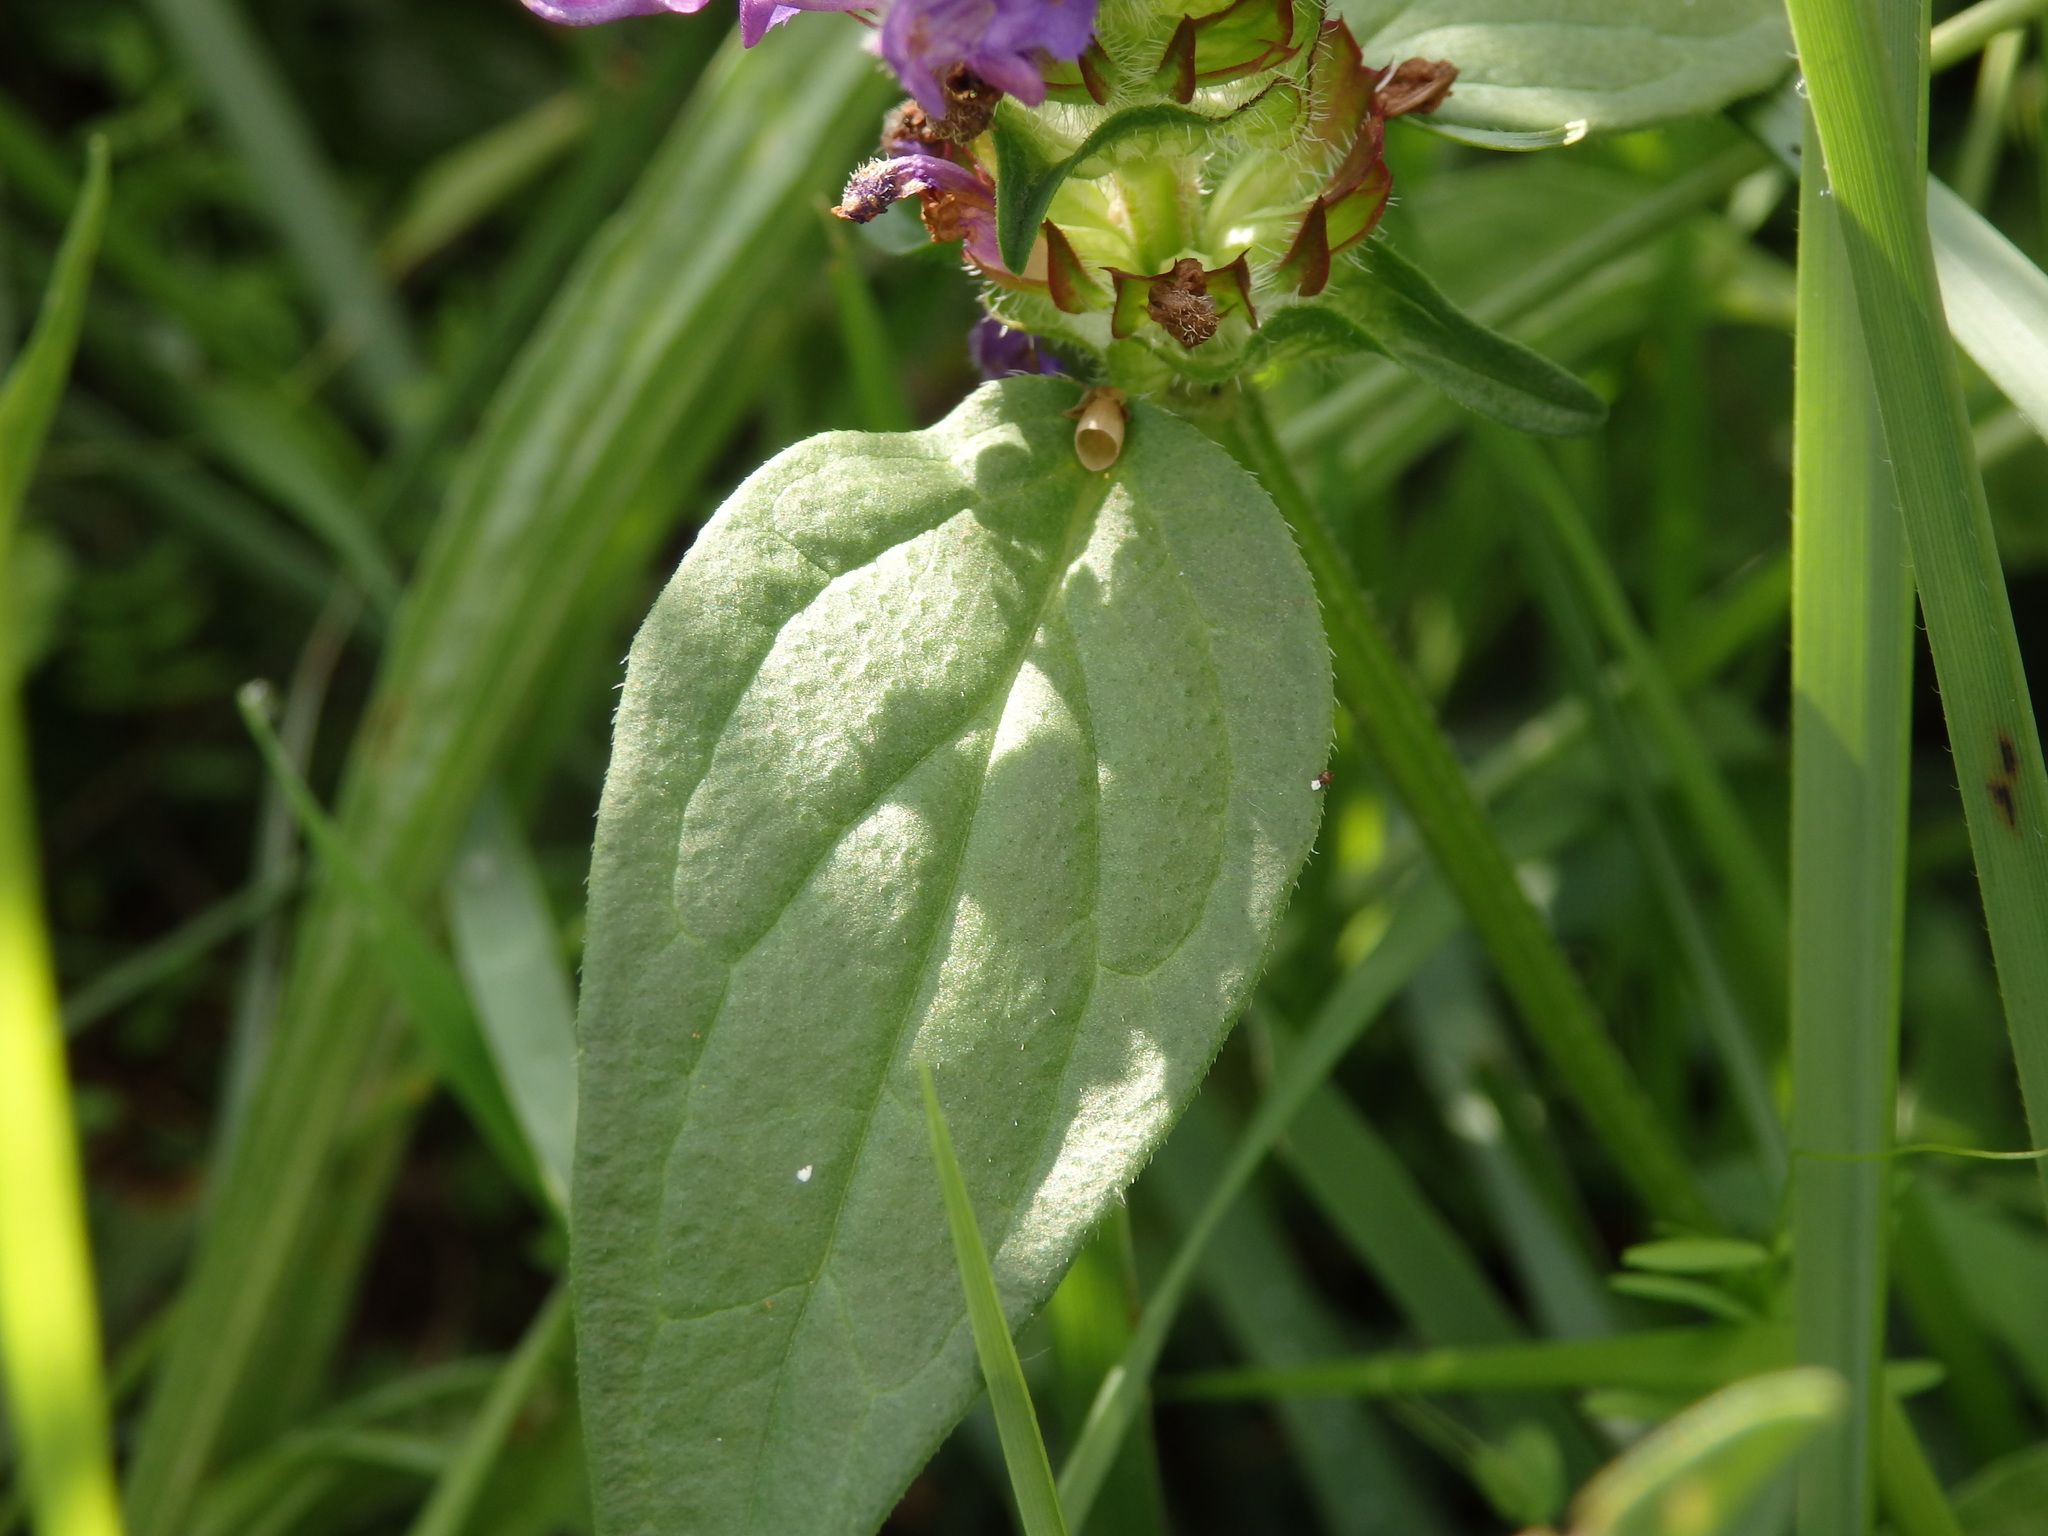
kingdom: Plantae
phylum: Tracheophyta
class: Magnoliopsida
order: Lamiales
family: Lamiaceae
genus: Prunella
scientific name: Prunella vulgaris
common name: Heal-all
